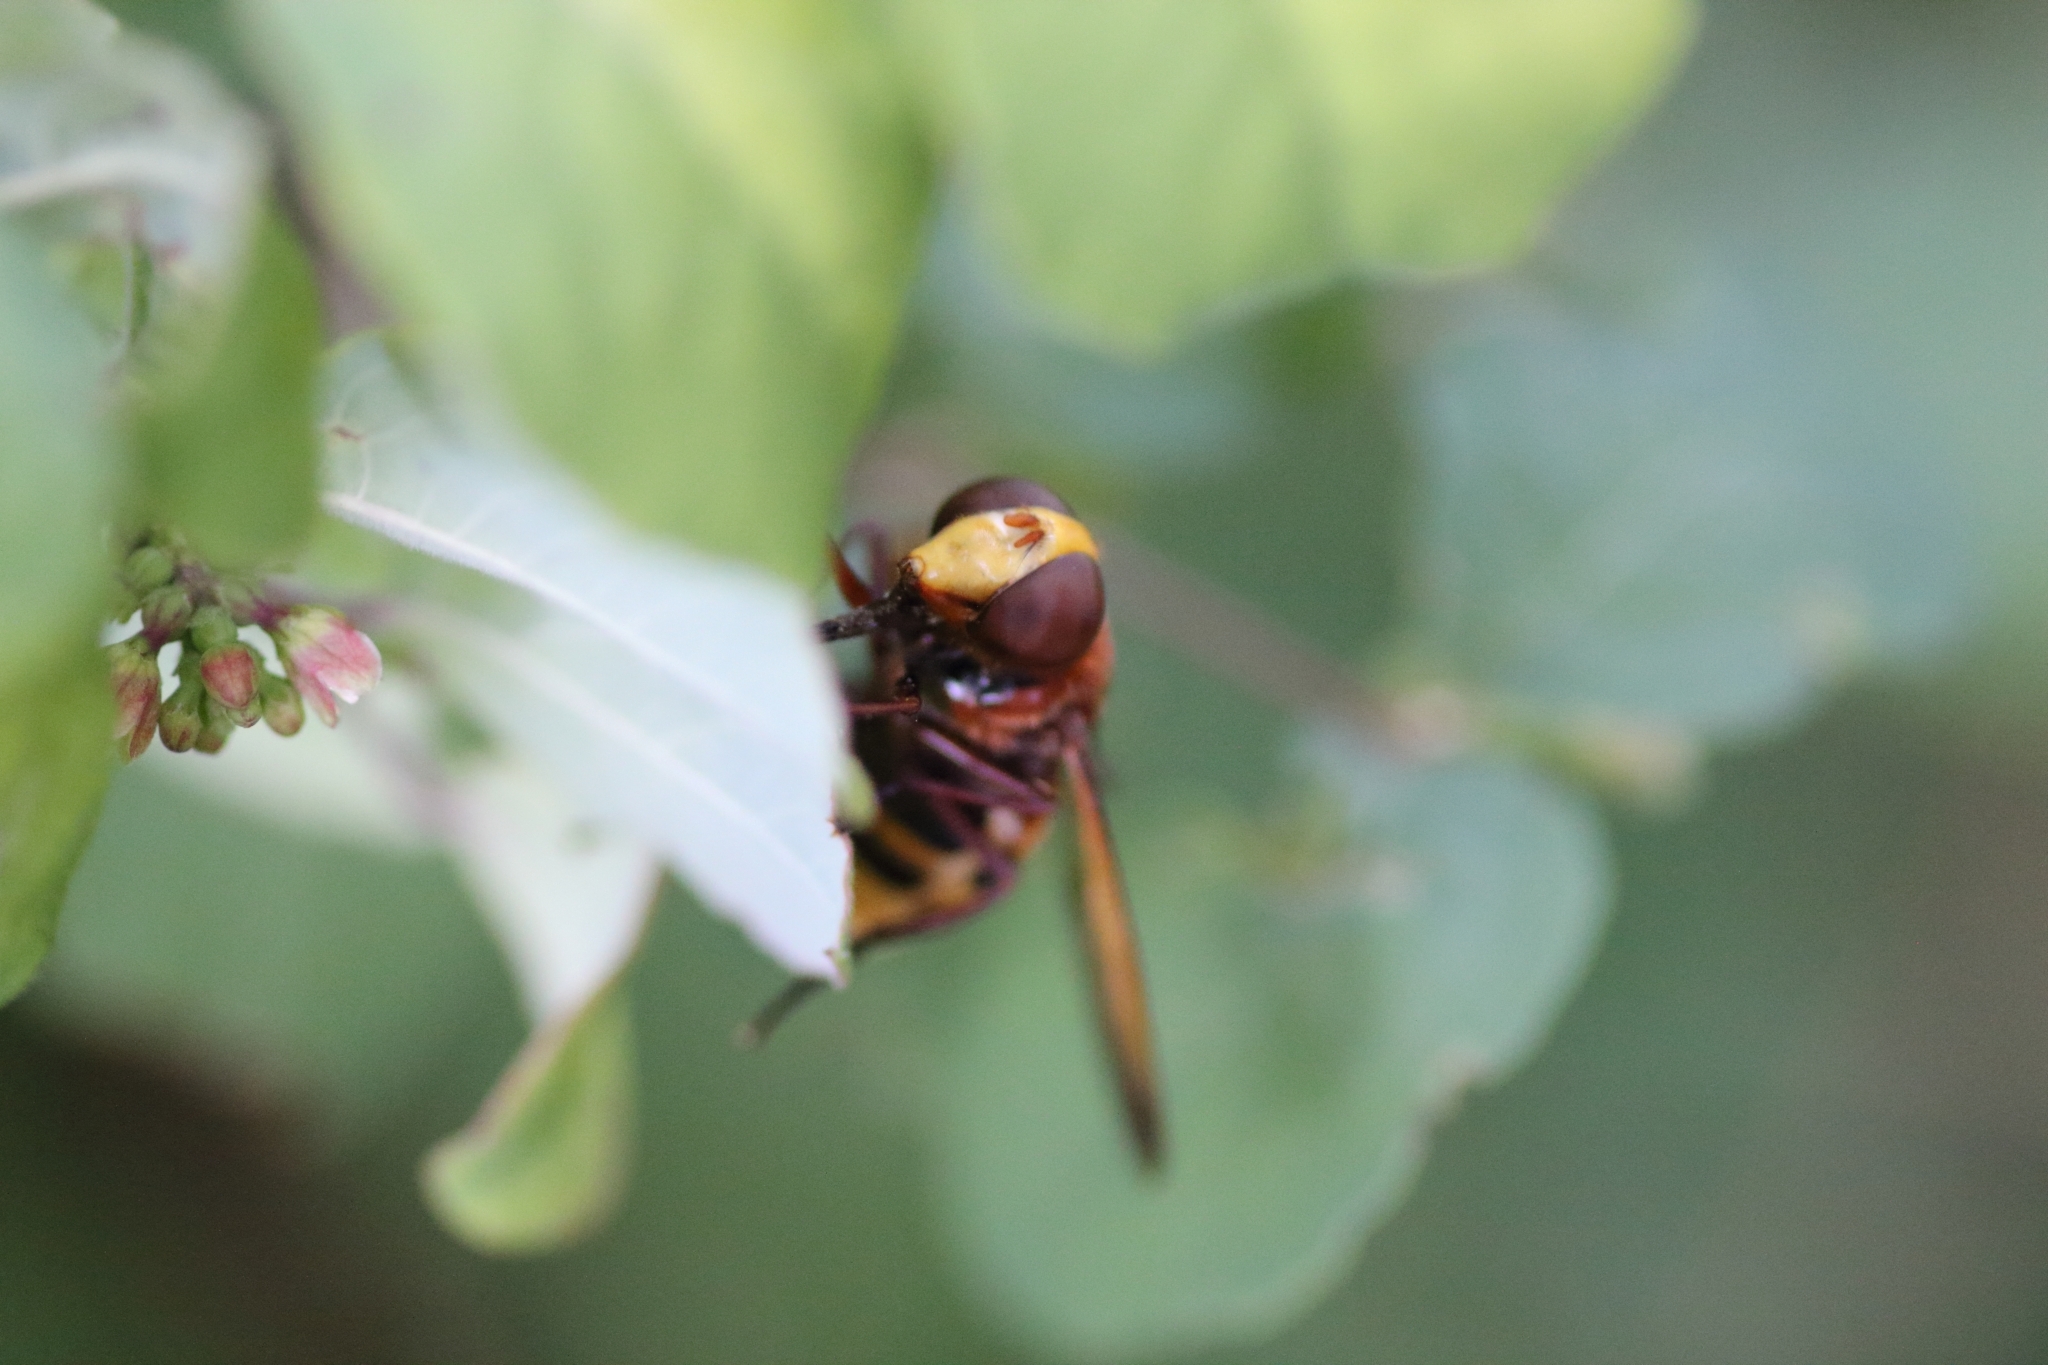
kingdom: Animalia
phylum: Arthropoda
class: Insecta
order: Diptera
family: Syrphidae
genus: Volucella
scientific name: Volucella zonaria
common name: Hornet hoverfly
